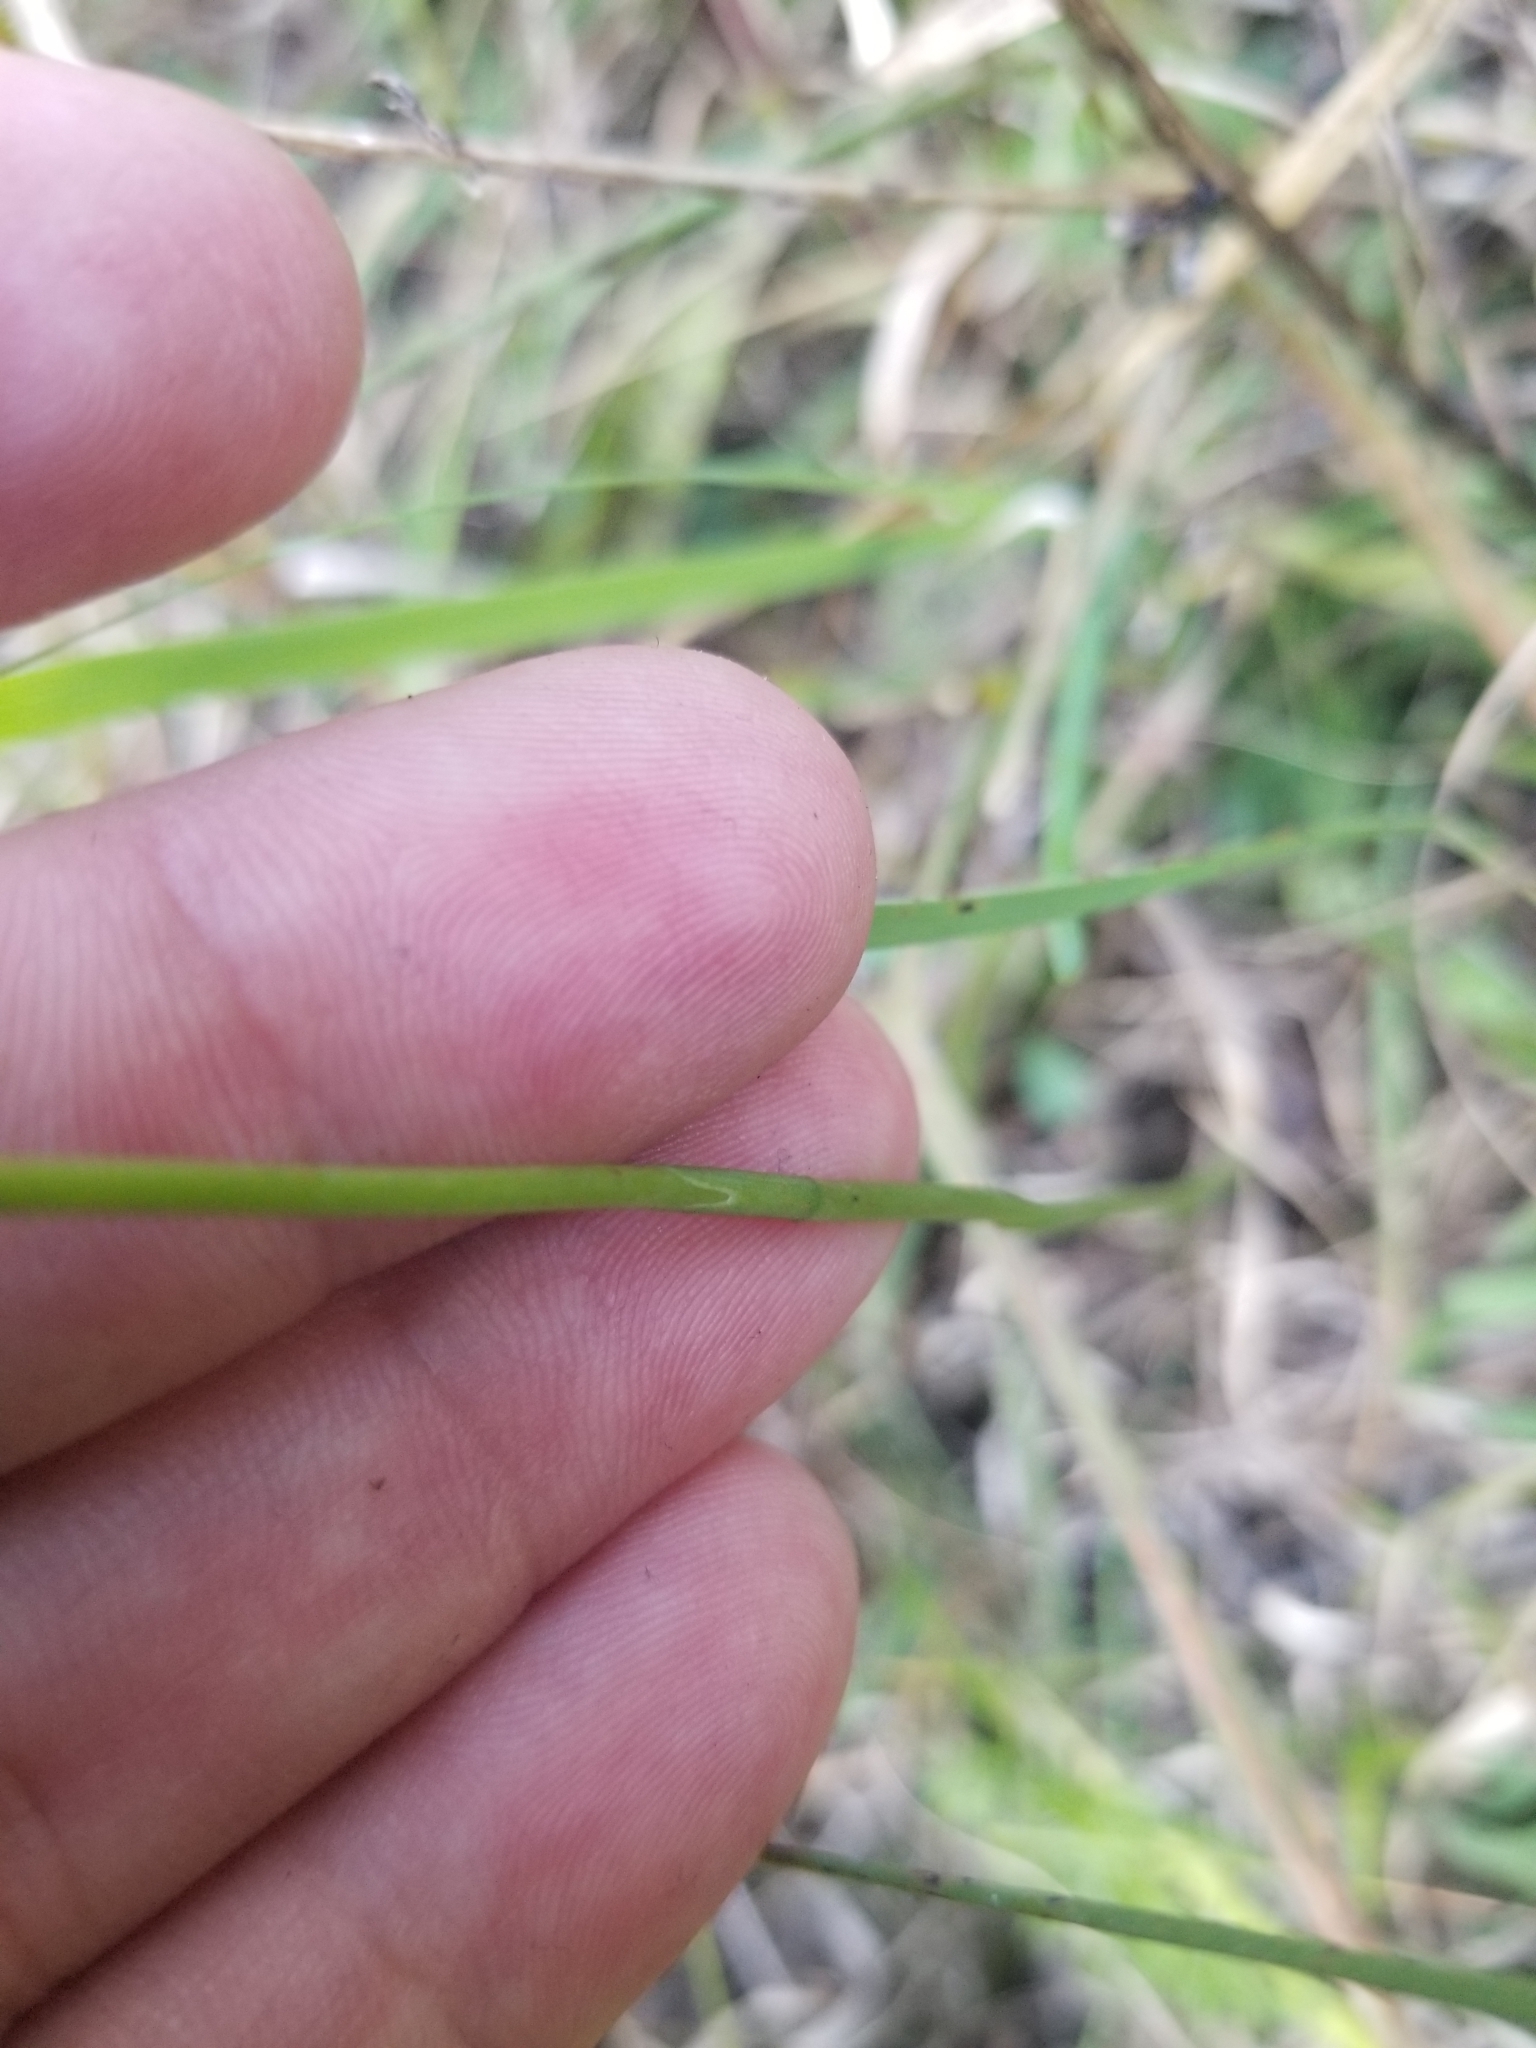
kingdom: Plantae
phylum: Tracheophyta
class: Liliopsida
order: Asparagales
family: Orchidaceae
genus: Spiranthes
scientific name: Spiranthes lacera
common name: Northern slender ladies'-tresses
